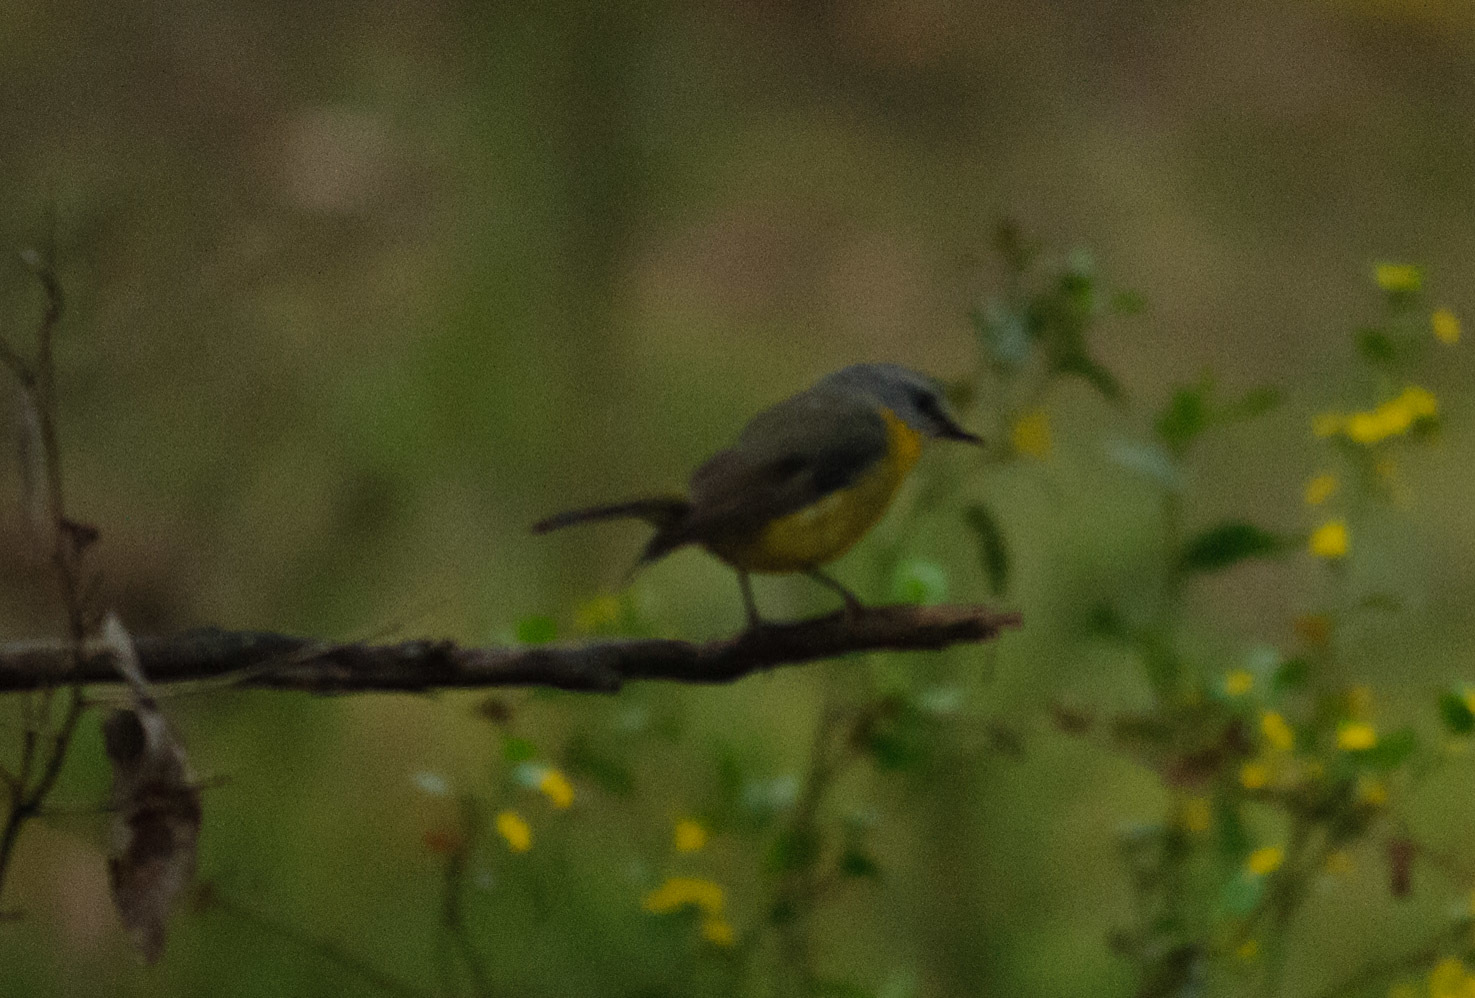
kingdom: Animalia
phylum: Chordata
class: Aves
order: Passeriformes
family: Petroicidae
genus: Eopsaltria
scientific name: Eopsaltria australis
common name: Eastern yellow robin
